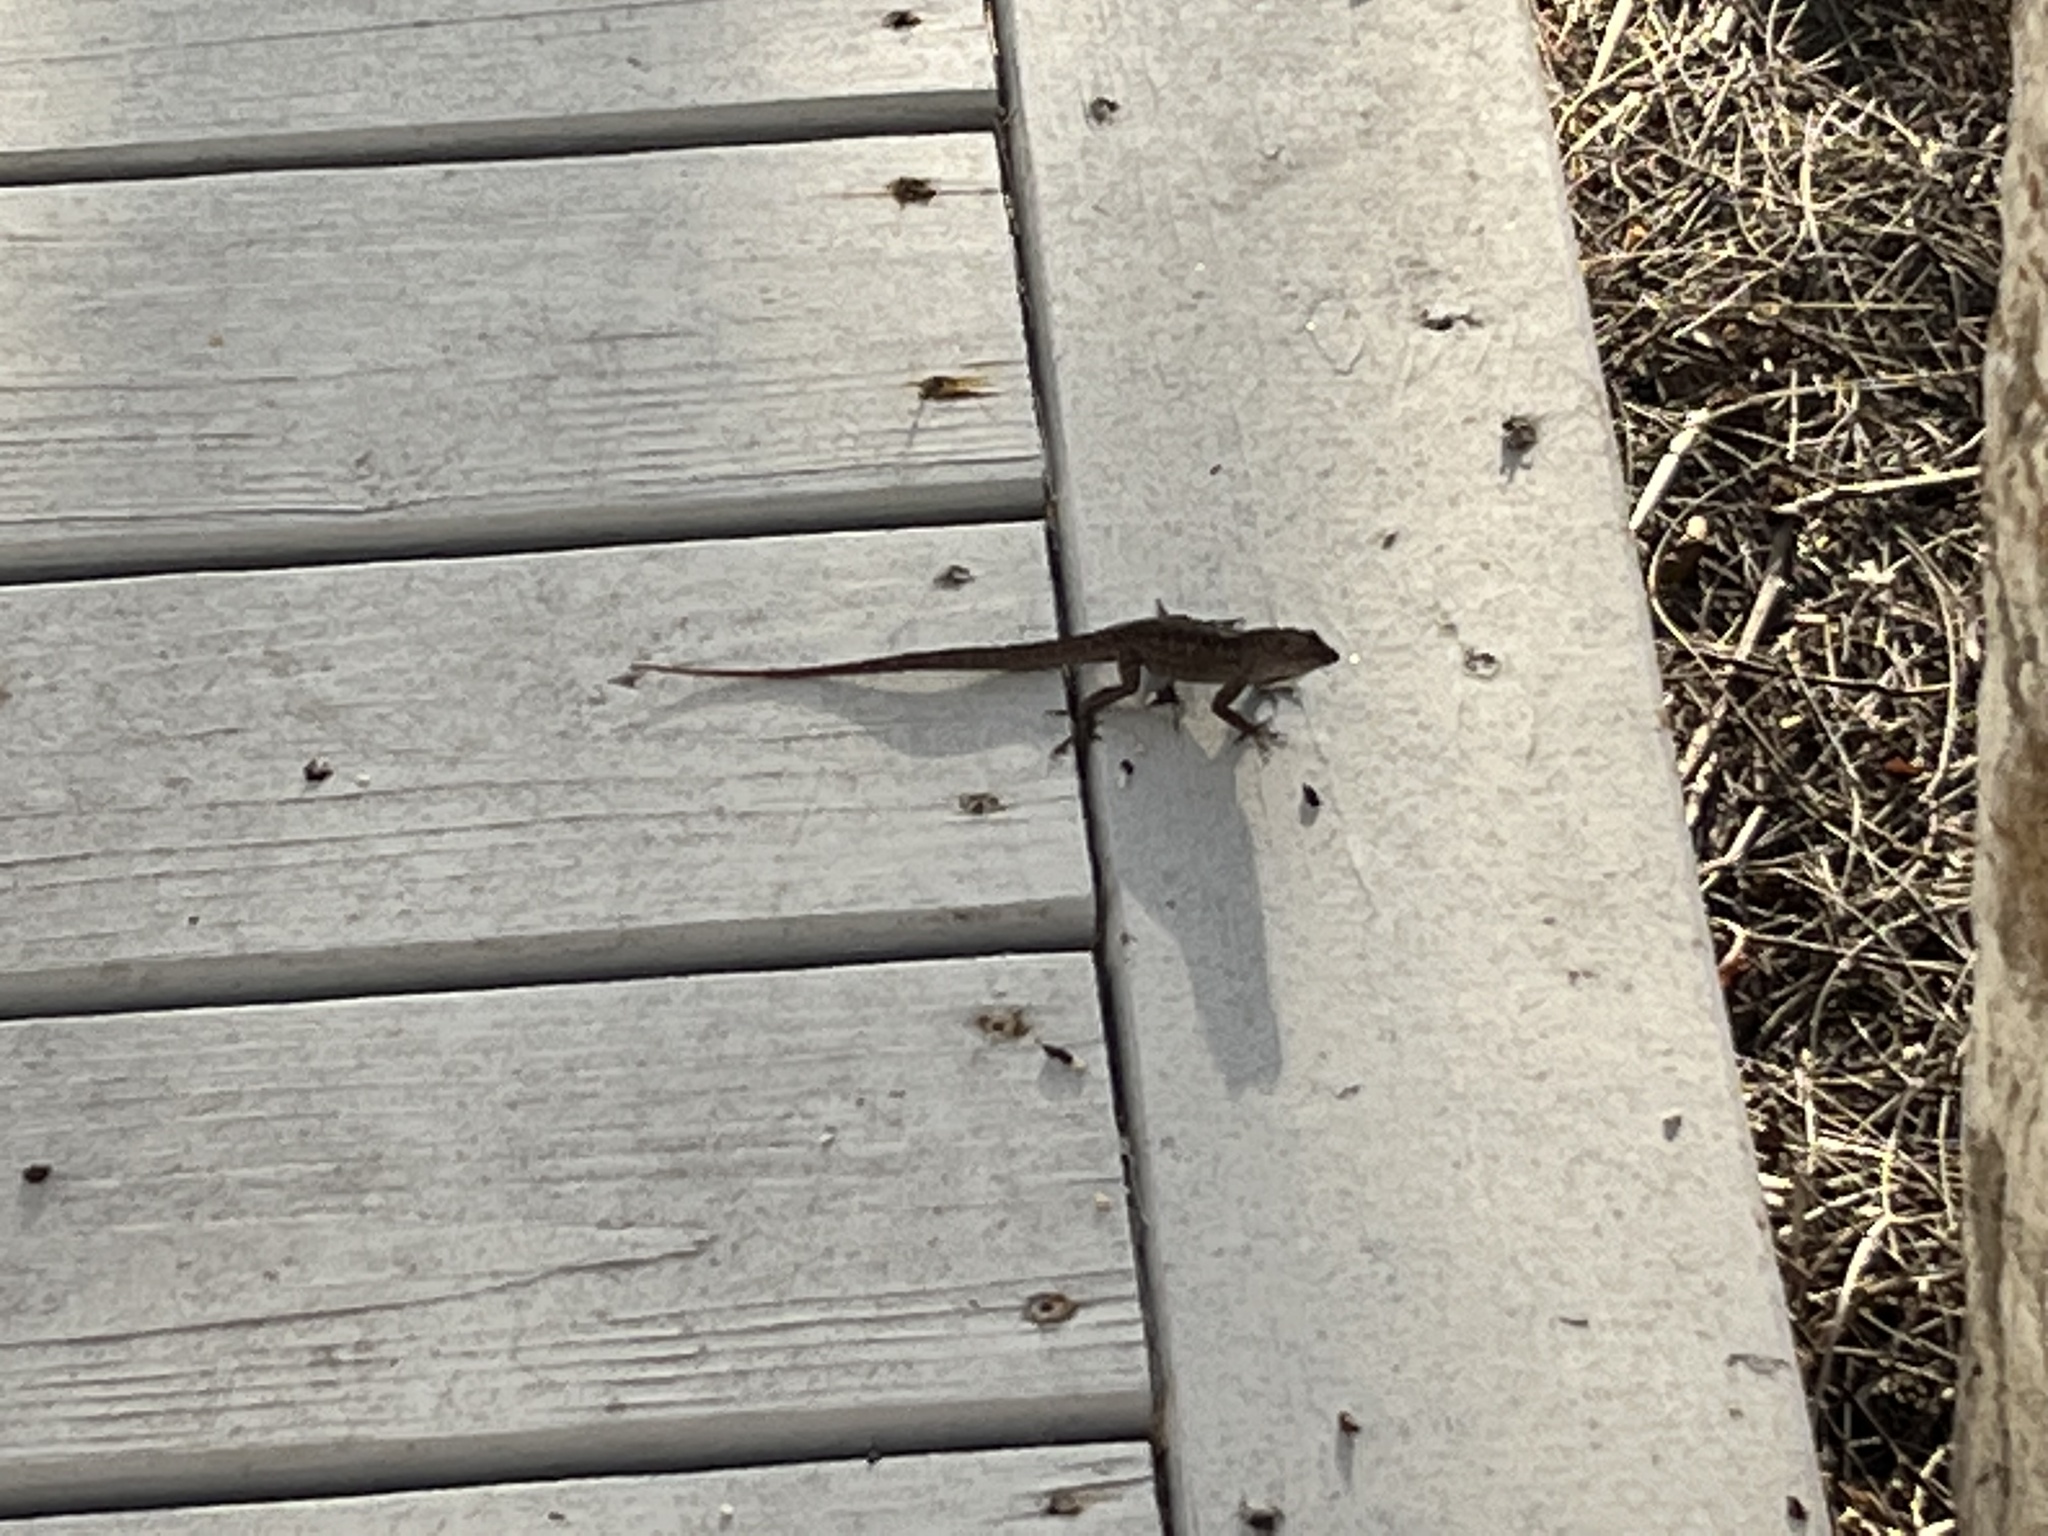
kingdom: Animalia
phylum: Chordata
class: Squamata
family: Dactyloidae
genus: Anolis
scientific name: Anolis sagrei
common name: Brown anole
